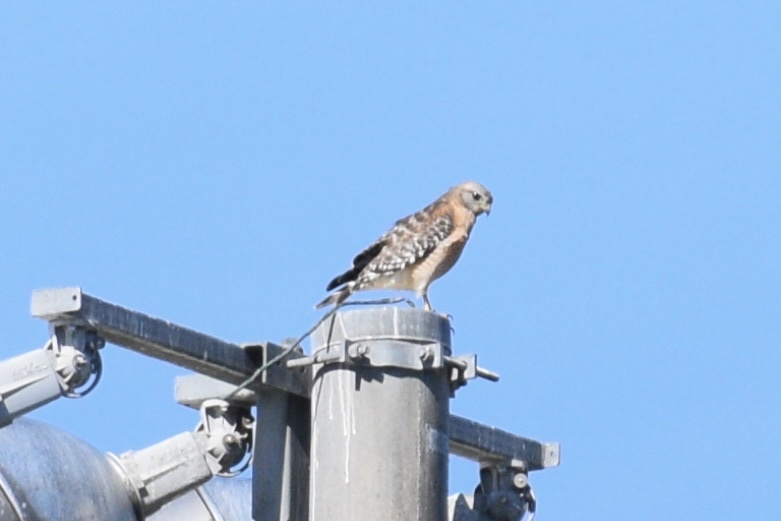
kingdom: Animalia
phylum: Chordata
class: Aves
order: Accipitriformes
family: Accipitridae
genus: Buteo
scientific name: Buteo lineatus
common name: Red-shouldered hawk
